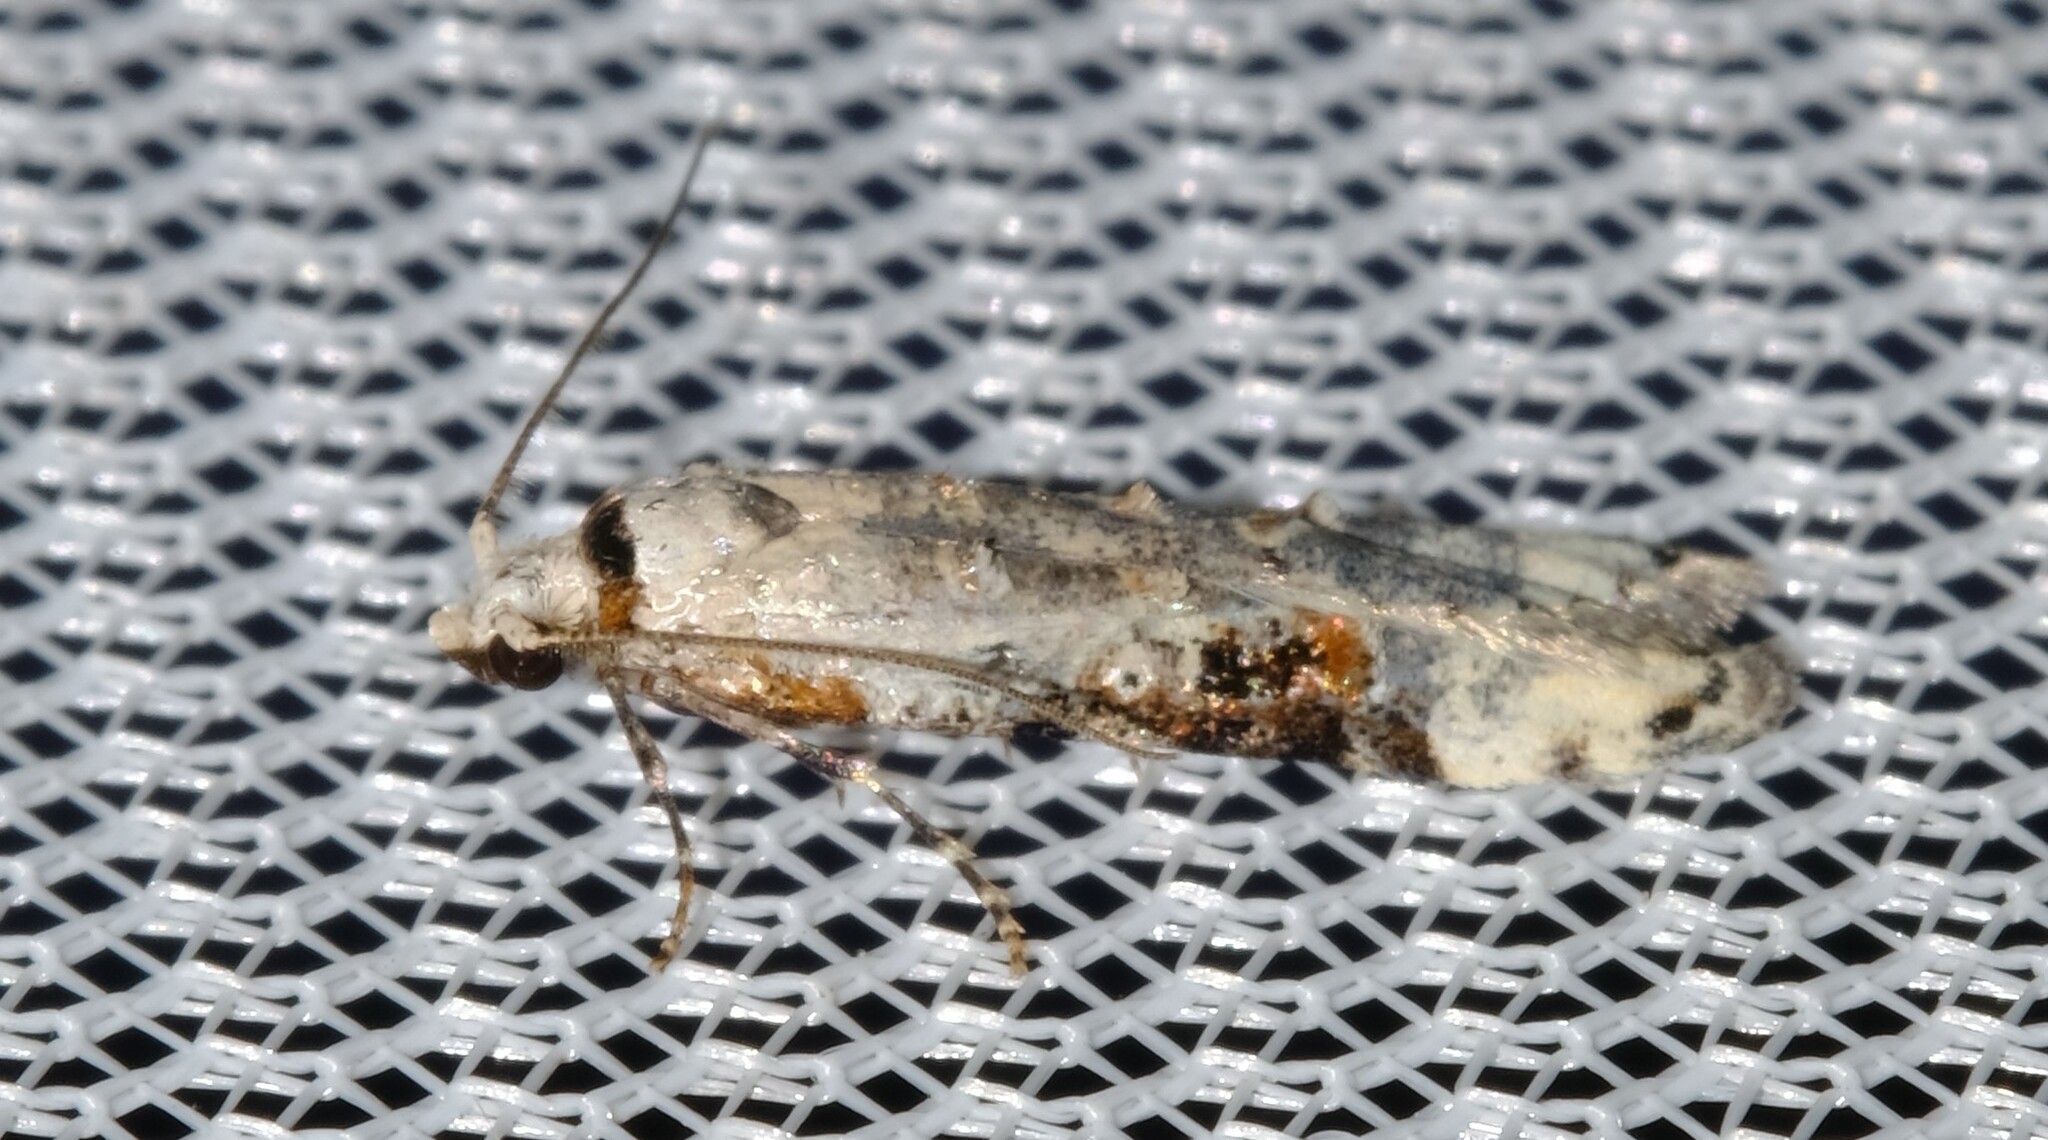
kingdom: Animalia
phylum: Arthropoda
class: Insecta
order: Lepidoptera
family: Carposinidae
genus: Sosineura
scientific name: Sosineura mimica
